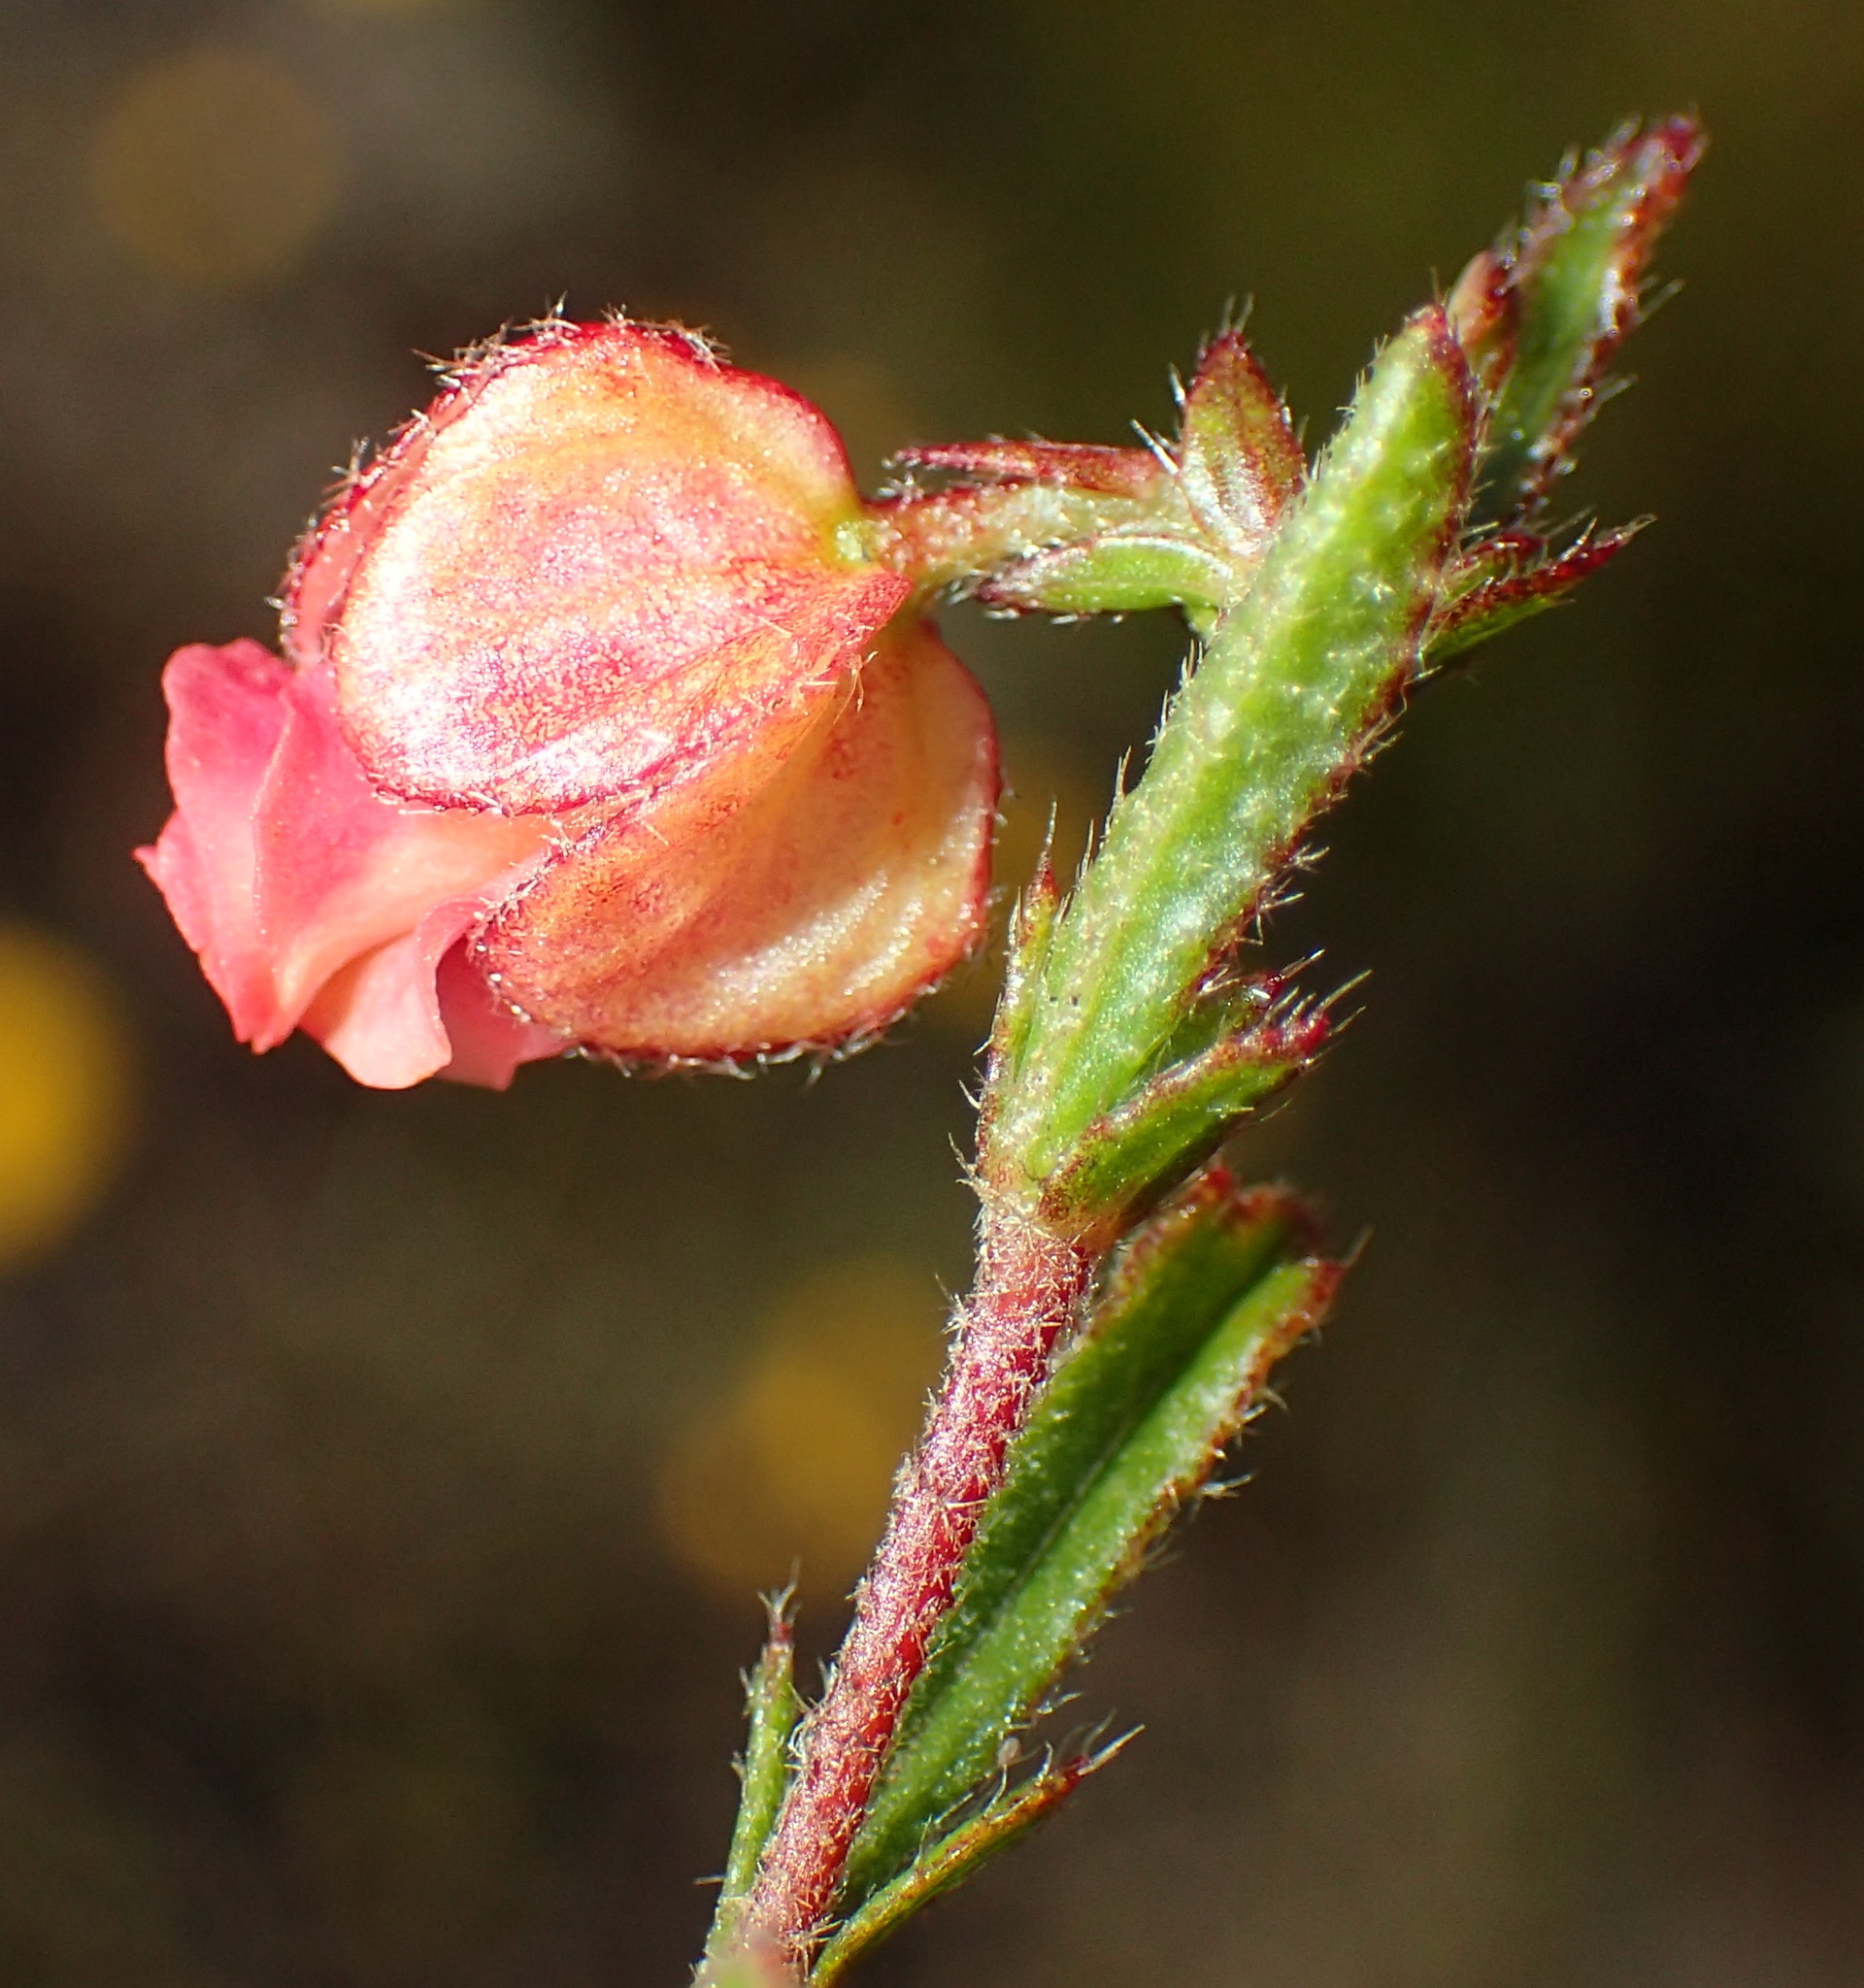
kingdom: Plantae
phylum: Tracheophyta
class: Magnoliopsida
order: Malvales
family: Malvaceae
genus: Hermannia
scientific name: Hermannia angularis
